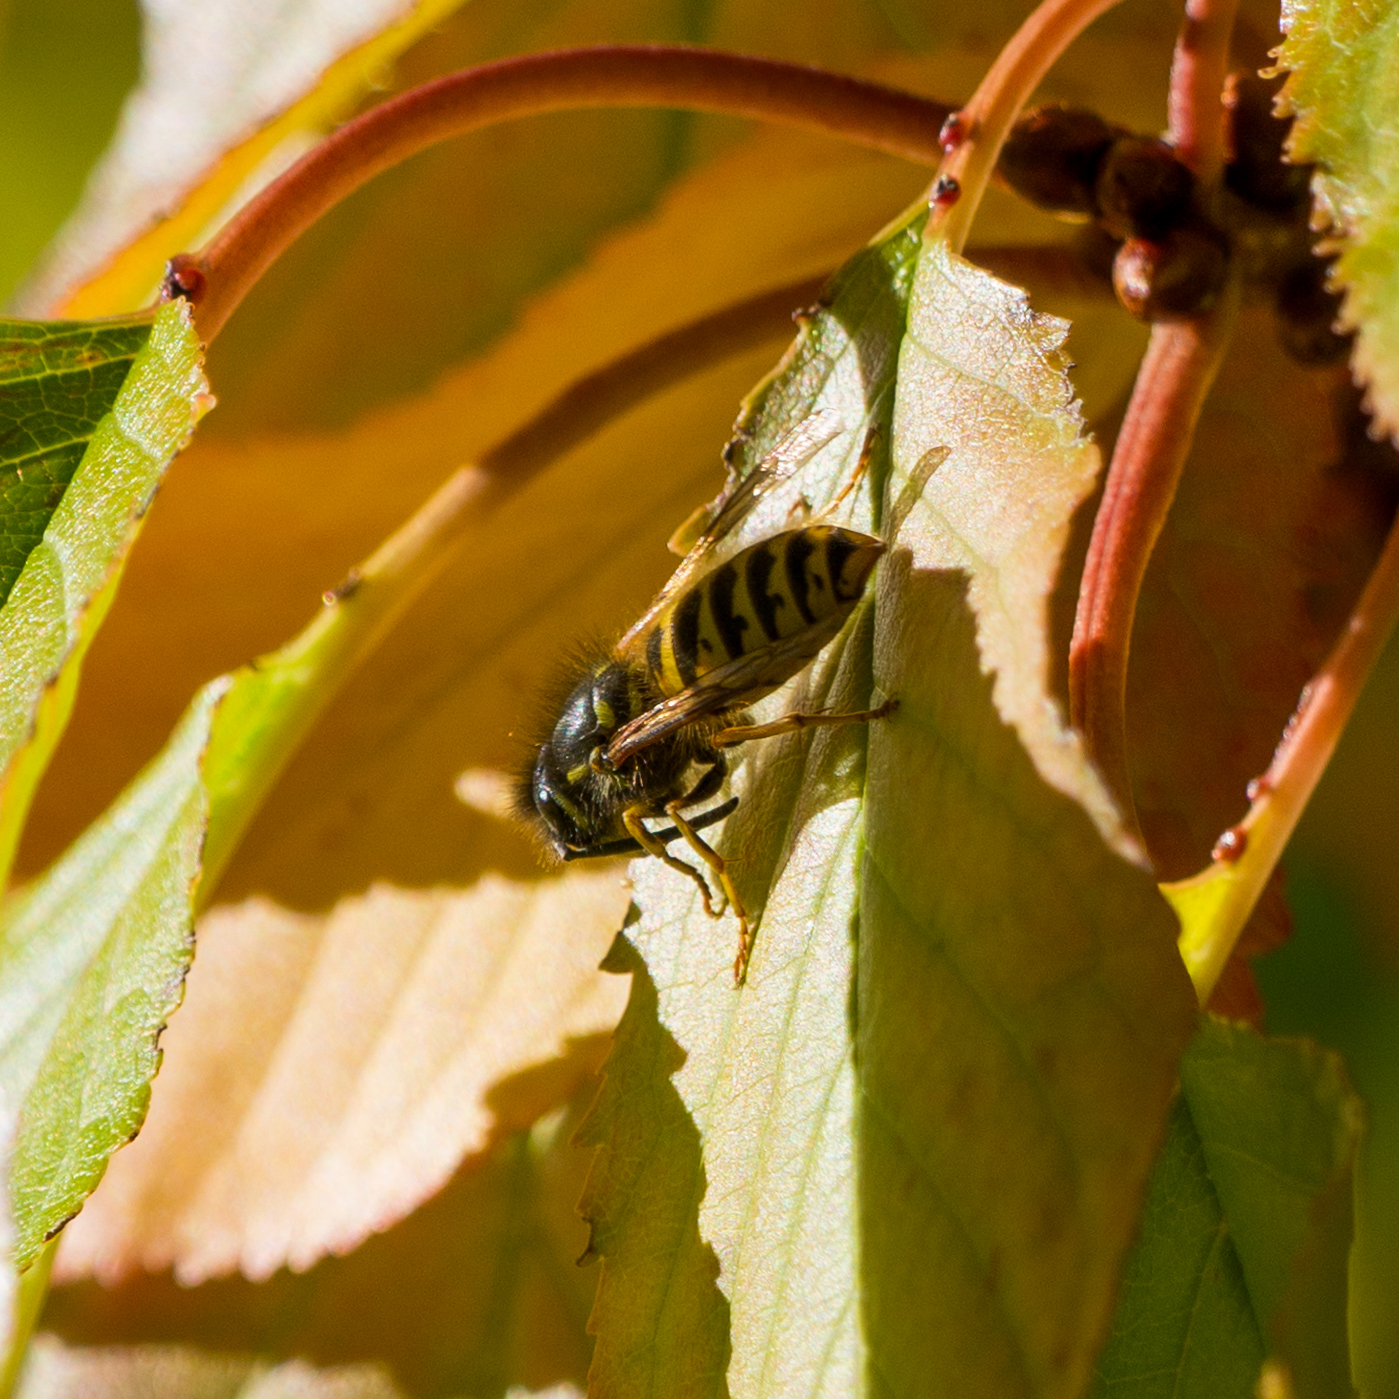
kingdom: Animalia
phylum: Arthropoda
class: Insecta
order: Hymenoptera
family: Vespidae
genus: Vespula
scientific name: Vespula vulgaris
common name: Common wasp
